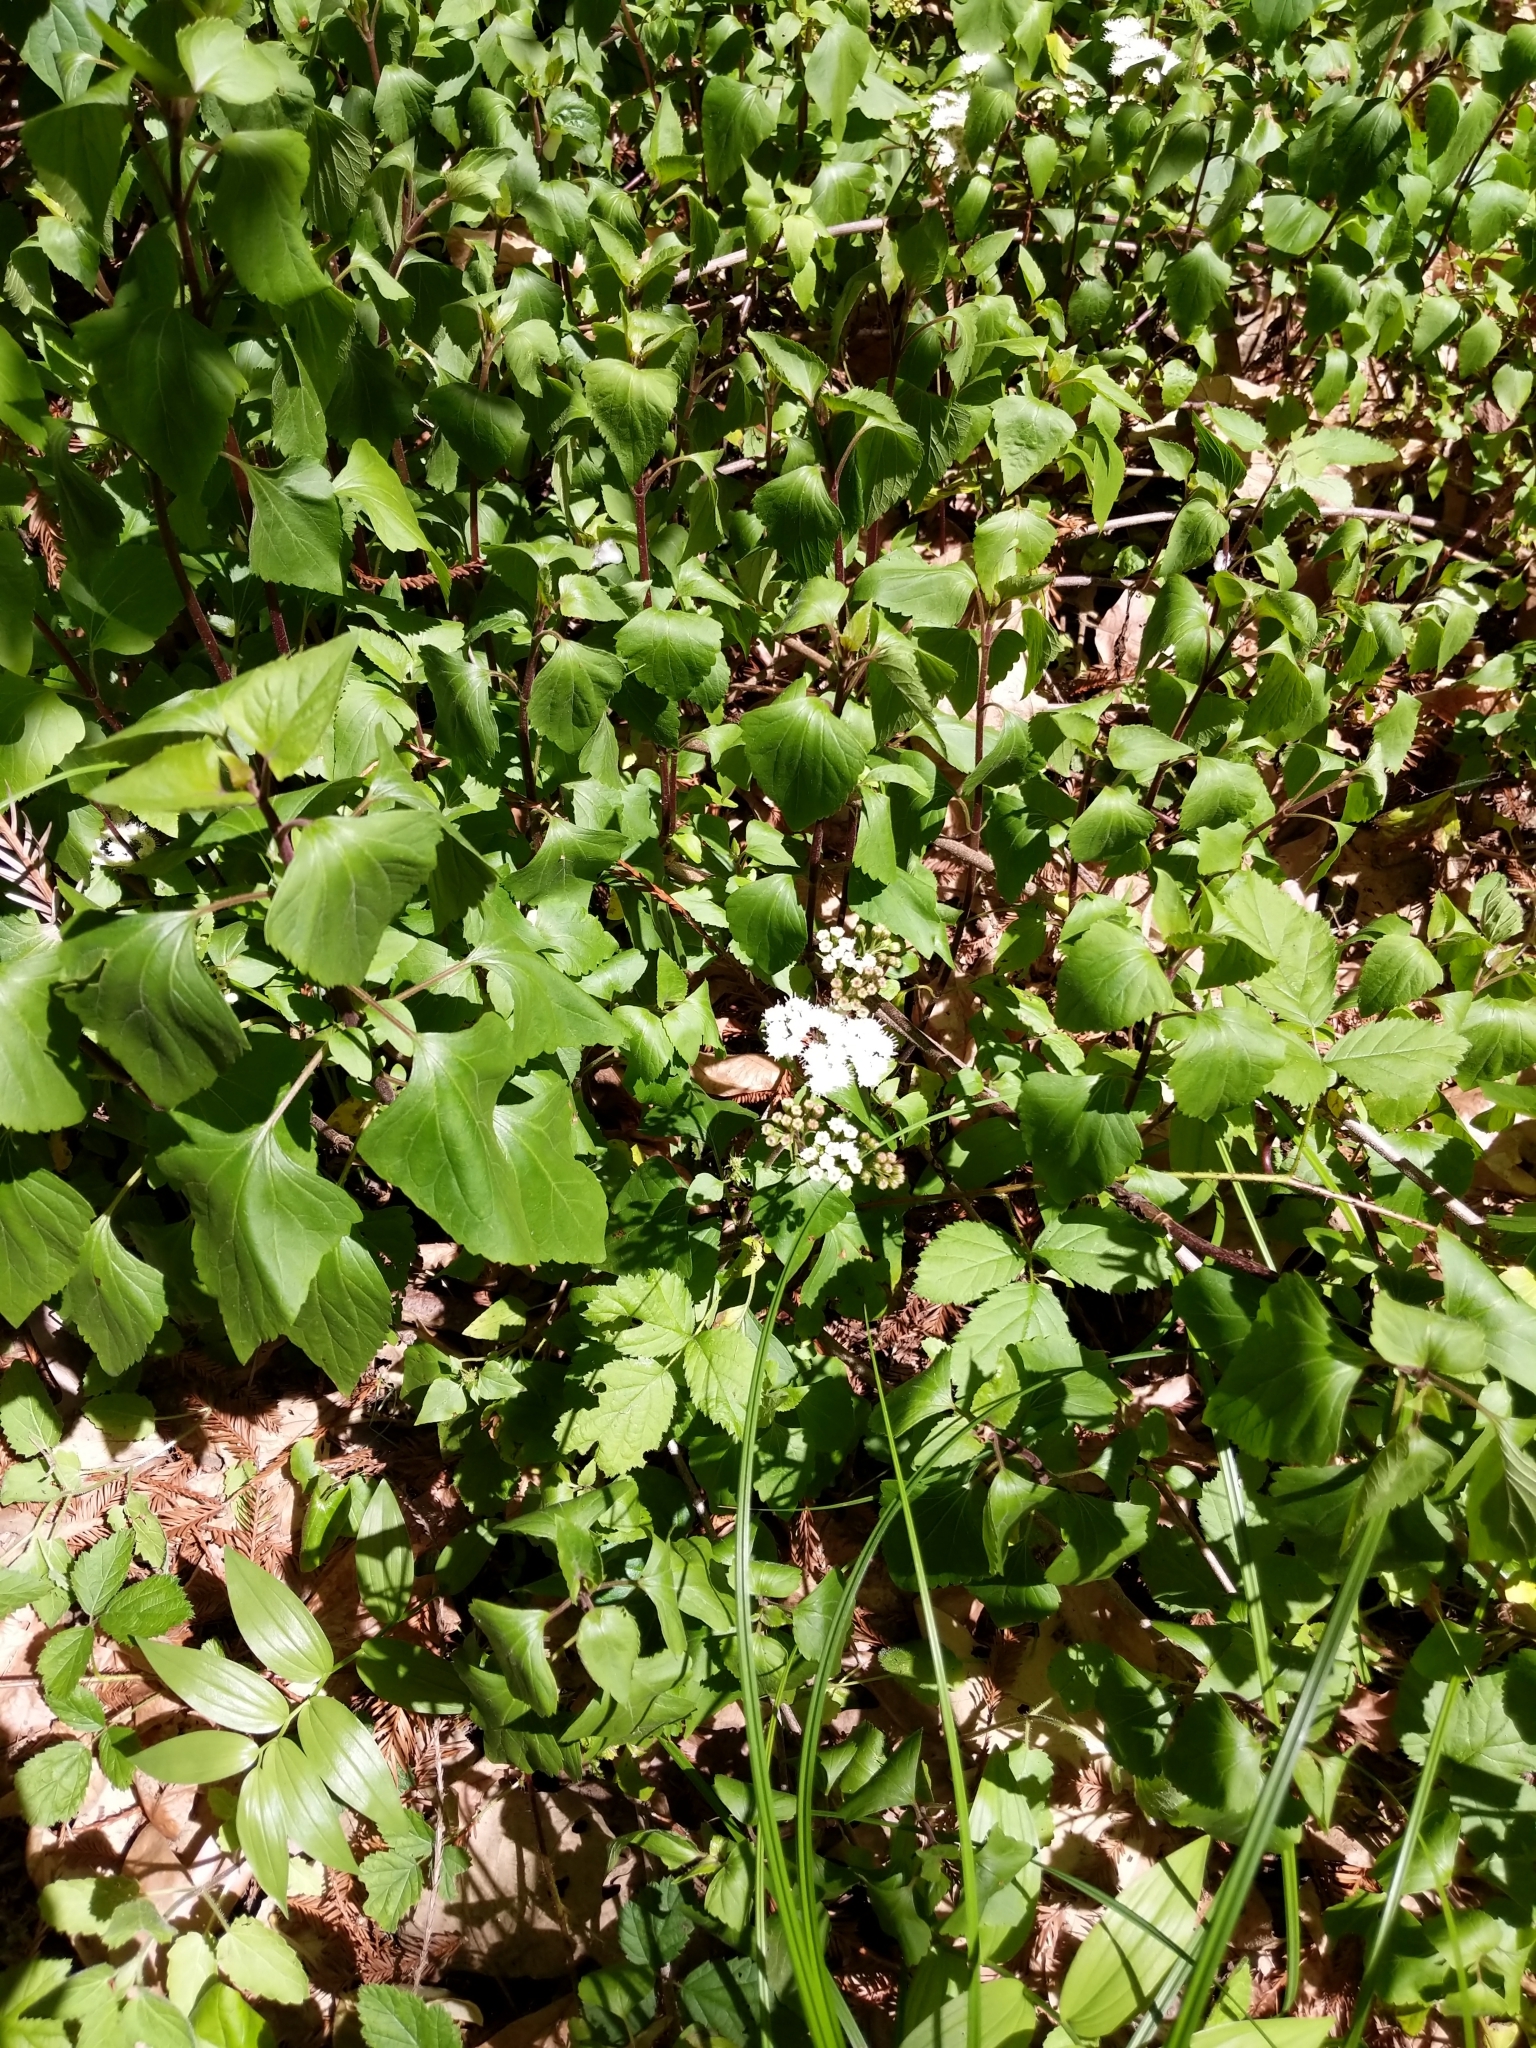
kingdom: Plantae
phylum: Tracheophyta
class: Magnoliopsida
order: Asterales
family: Asteraceae
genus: Ageratina
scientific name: Ageratina adenophora
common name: Sticky snakeroot
